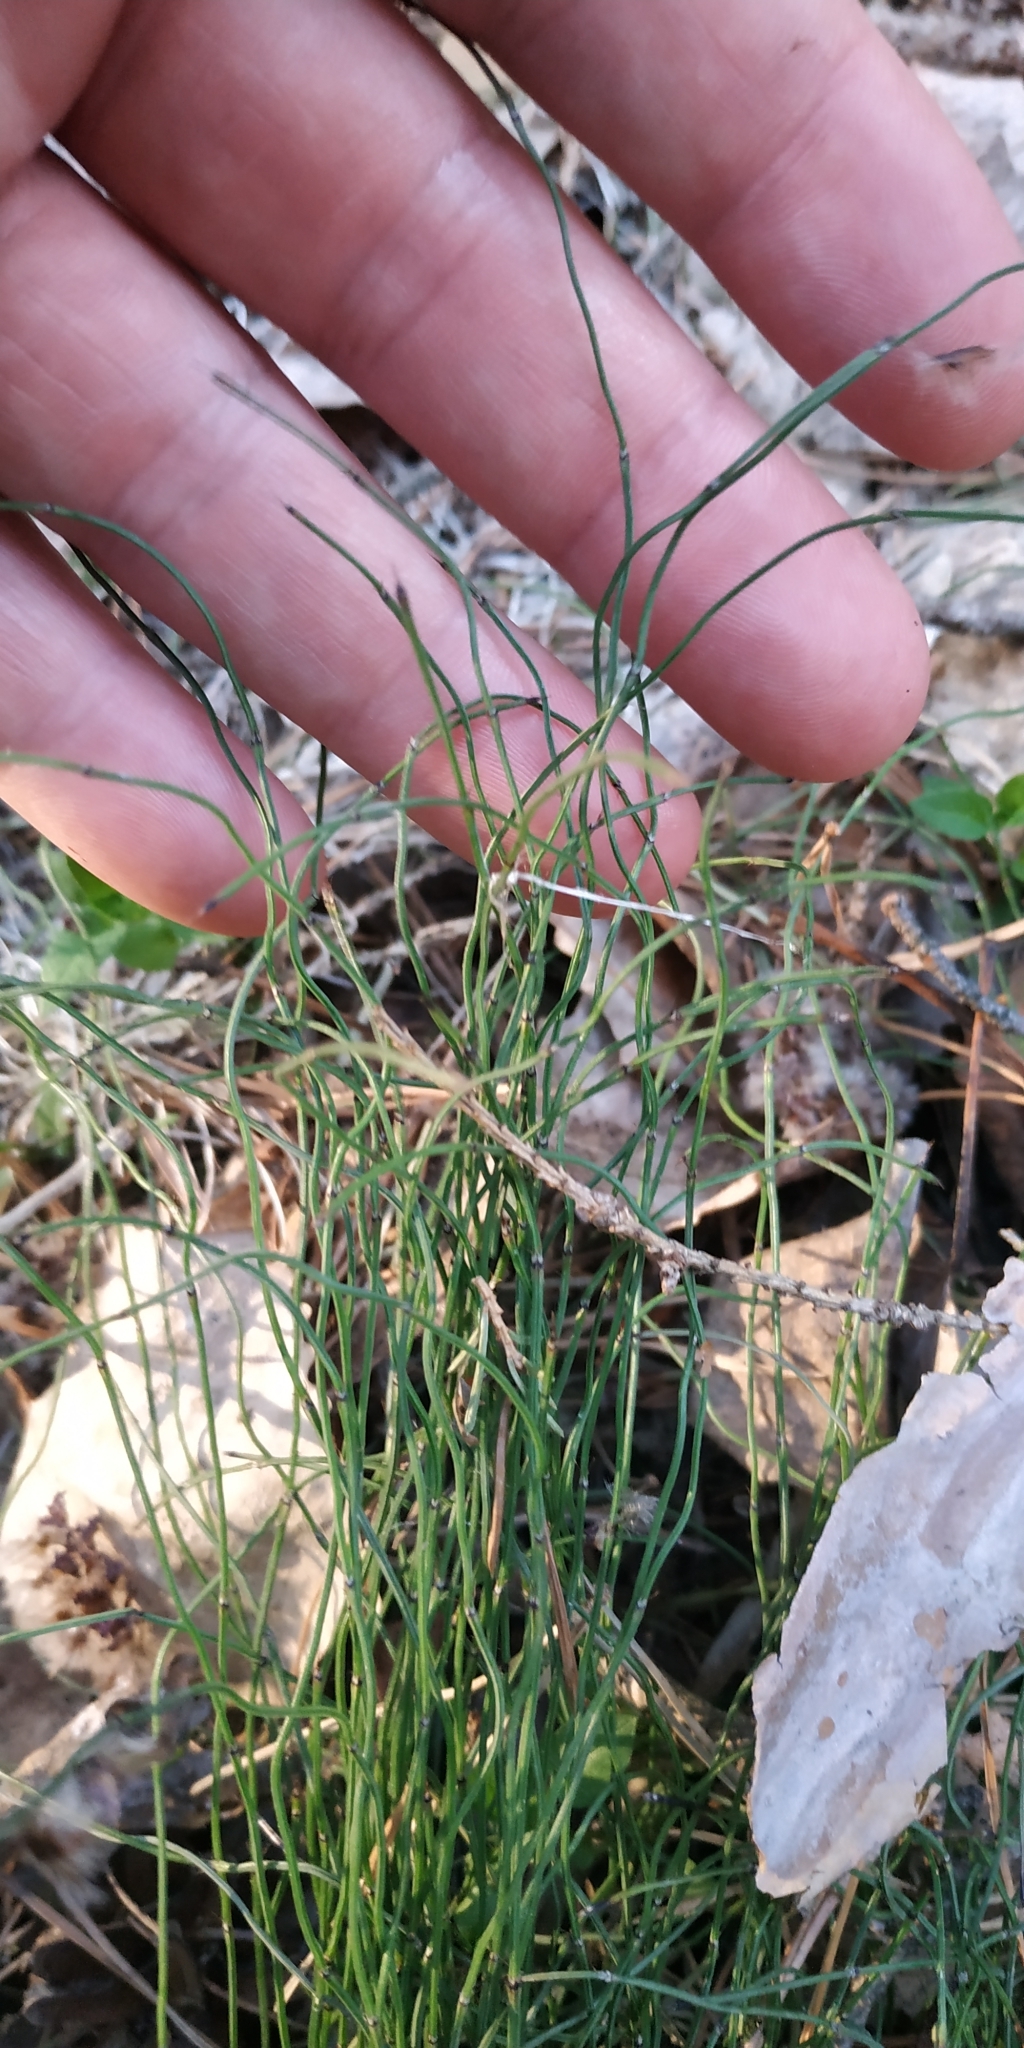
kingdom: Plantae
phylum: Tracheophyta
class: Polypodiopsida
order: Equisetales
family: Equisetaceae
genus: Equisetum
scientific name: Equisetum scirpoides
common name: Delicate horsetail
